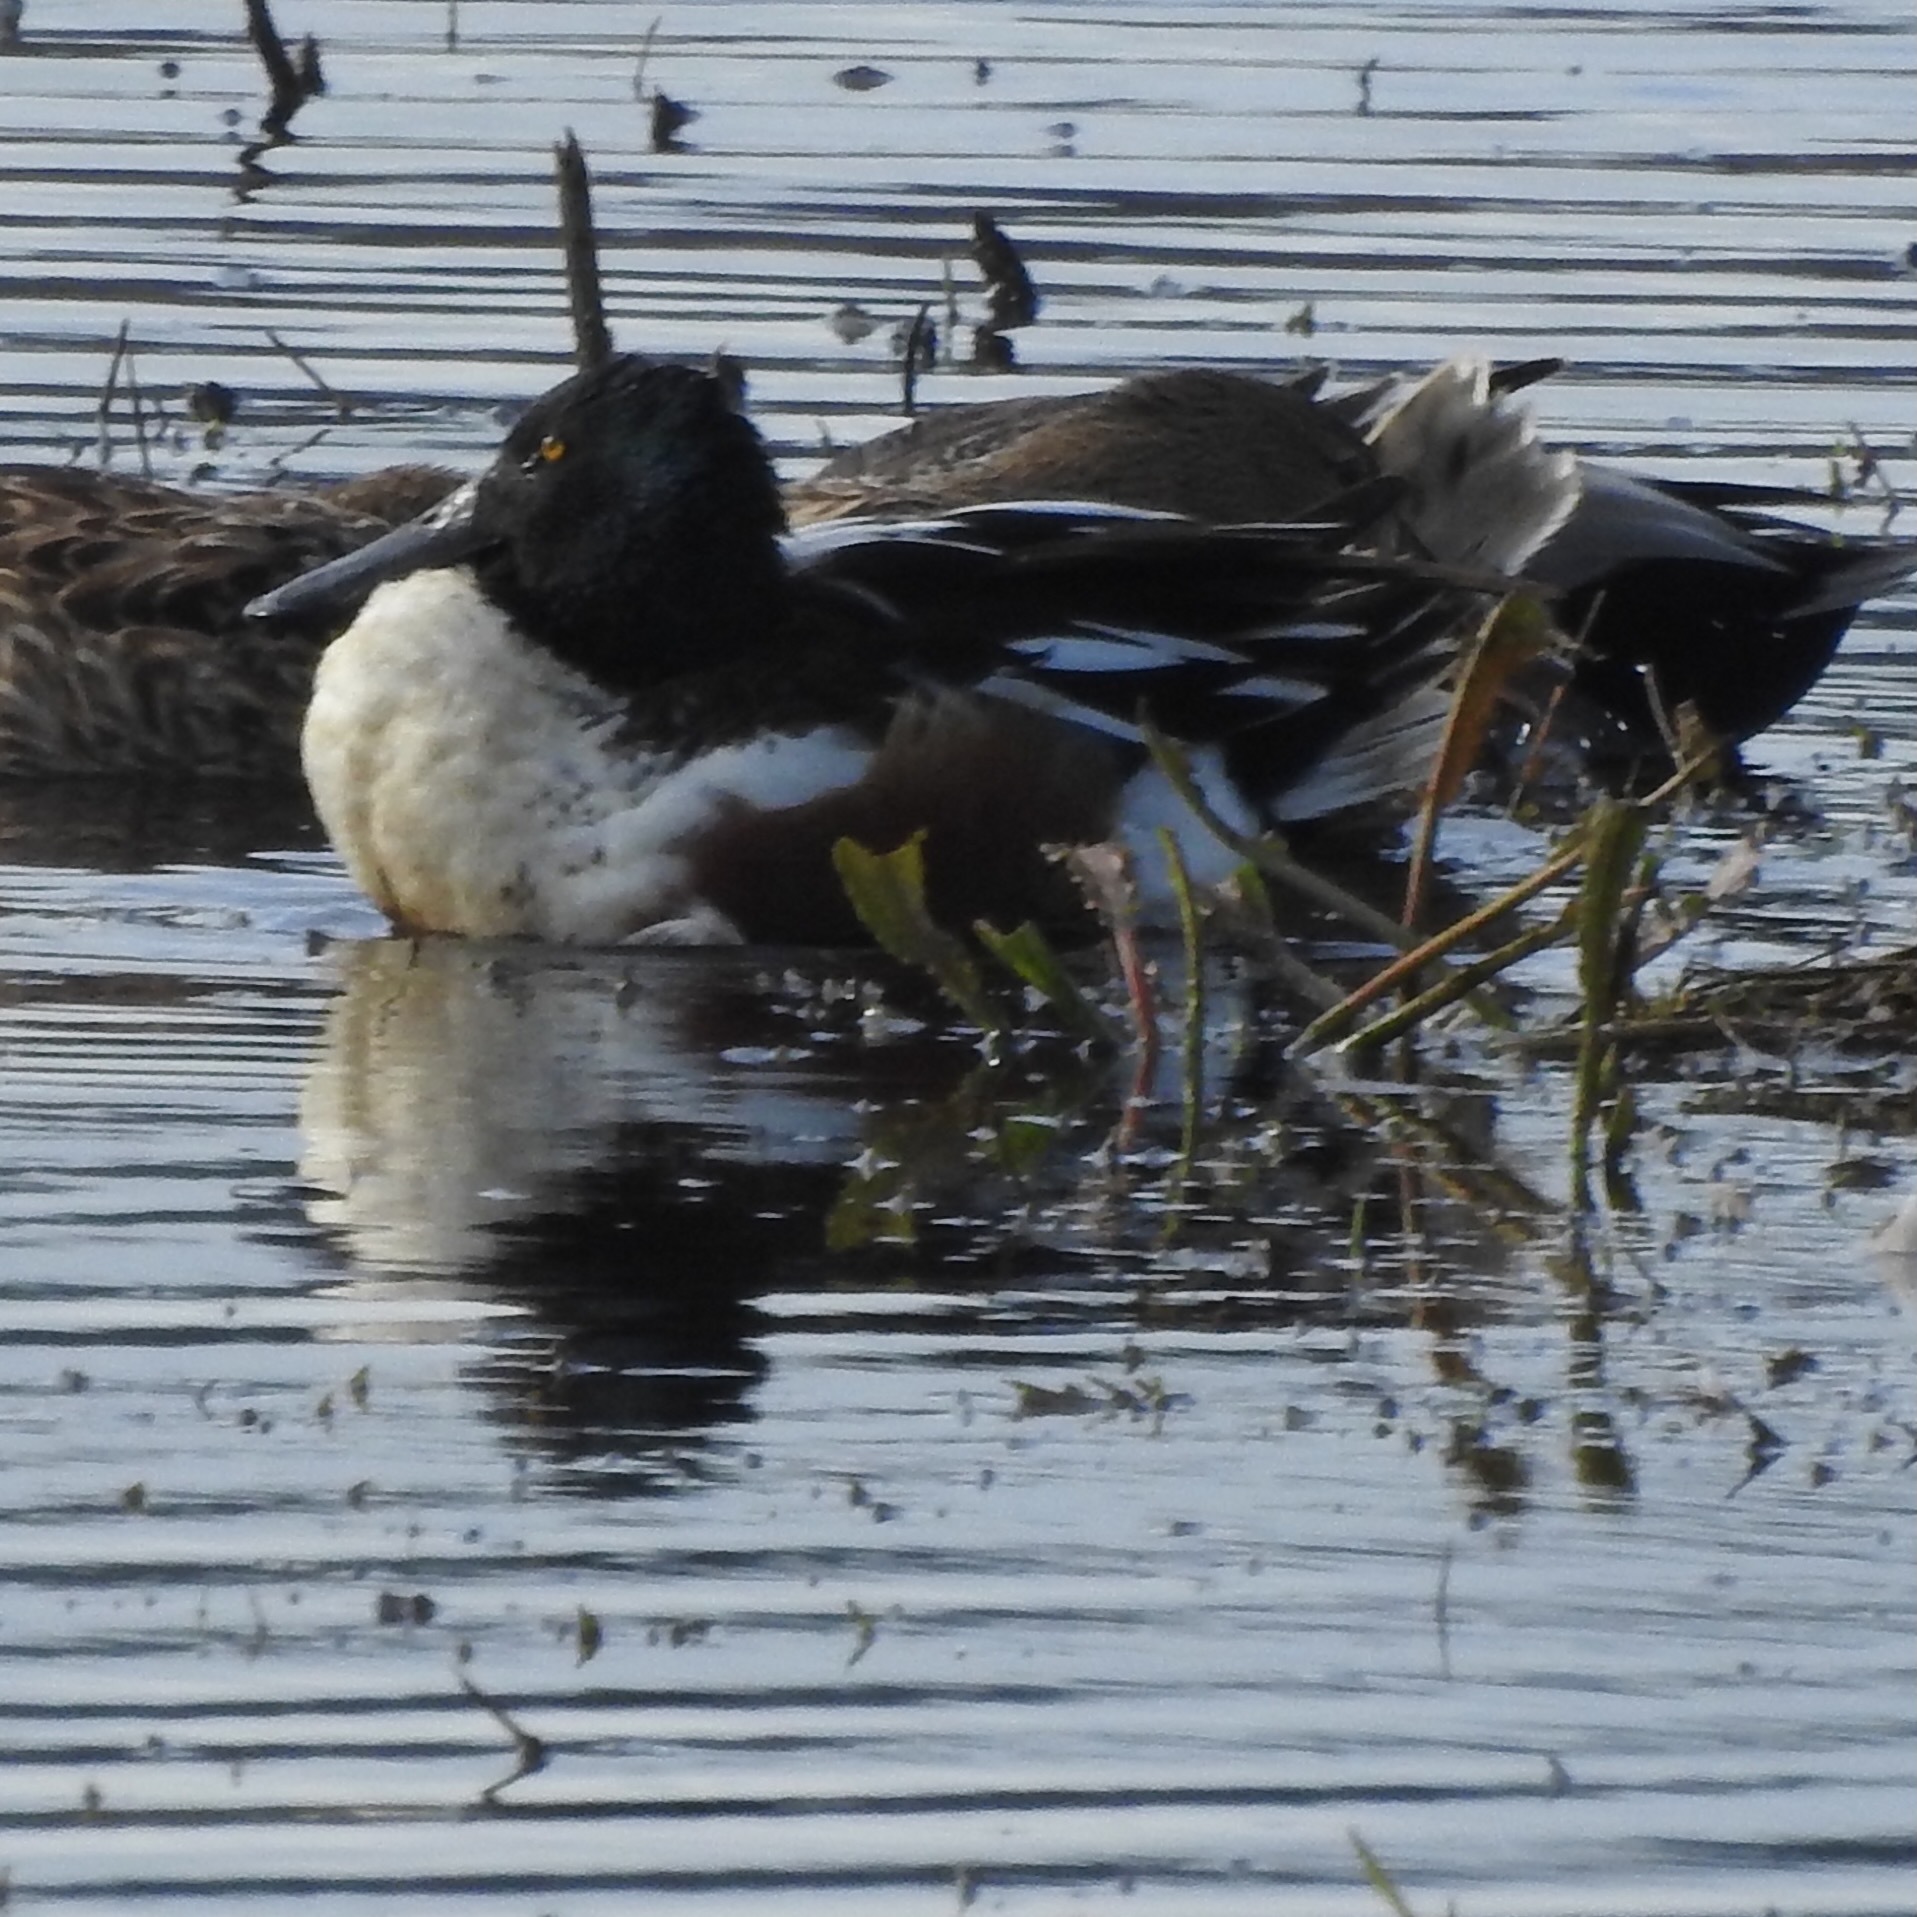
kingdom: Animalia
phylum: Chordata
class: Aves
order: Anseriformes
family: Anatidae
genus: Spatula
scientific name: Spatula clypeata
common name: Northern shoveler
